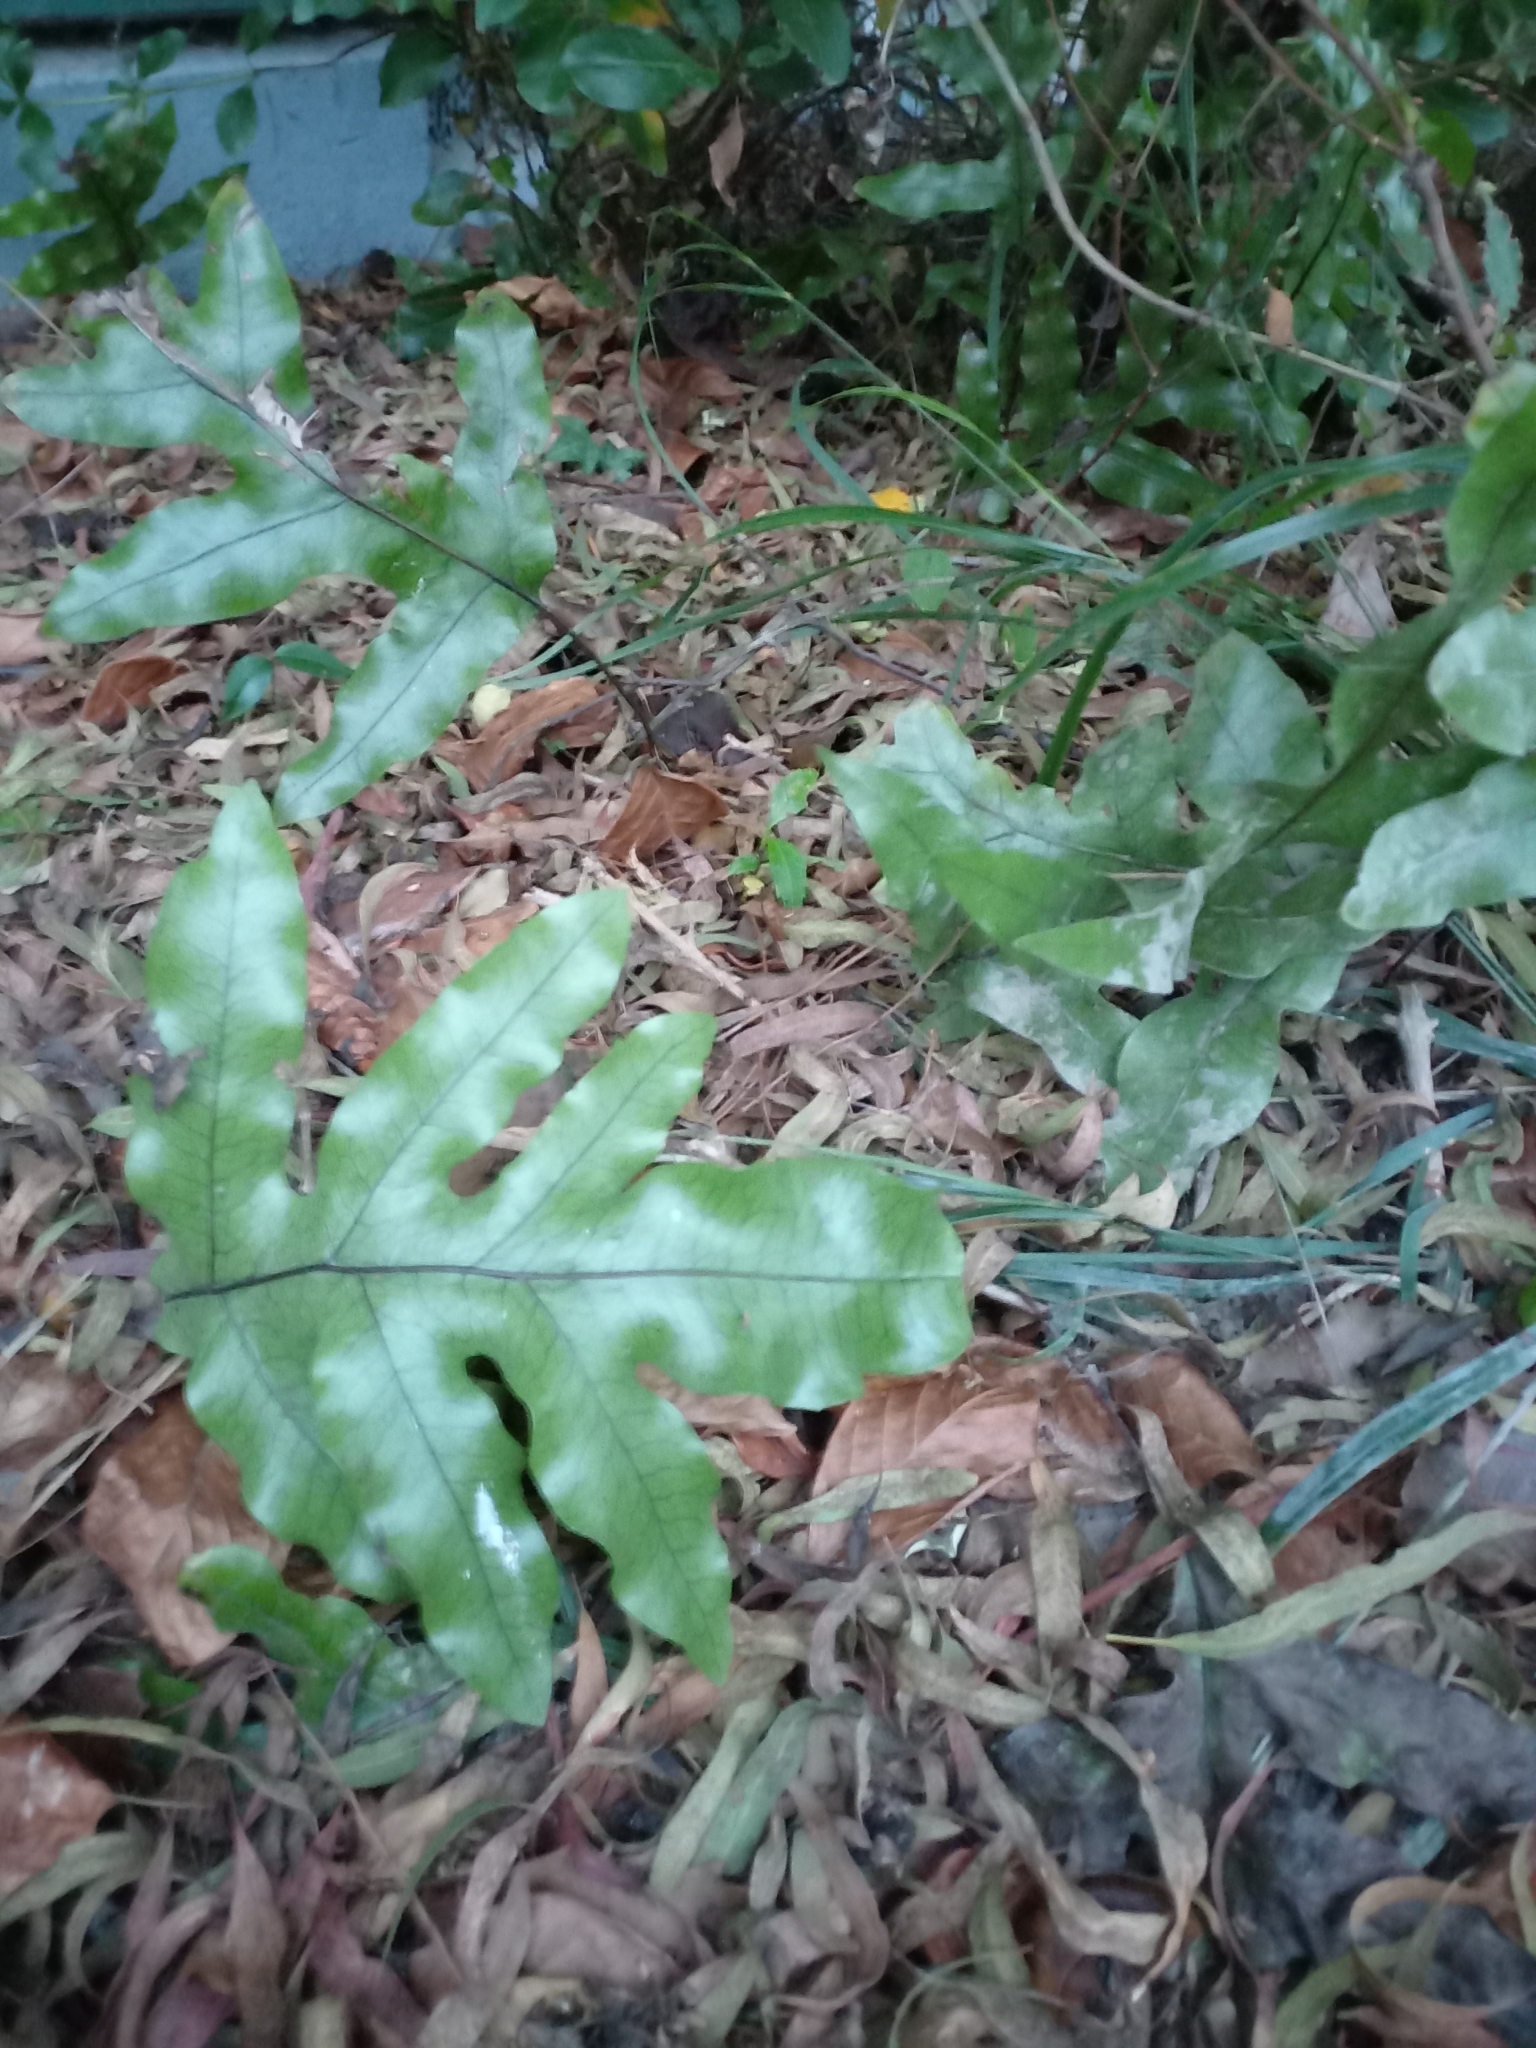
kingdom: Plantae
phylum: Tracheophyta
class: Polypodiopsida
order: Polypodiales
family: Polypodiaceae
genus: Lecanopteris
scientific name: Lecanopteris pustulata
